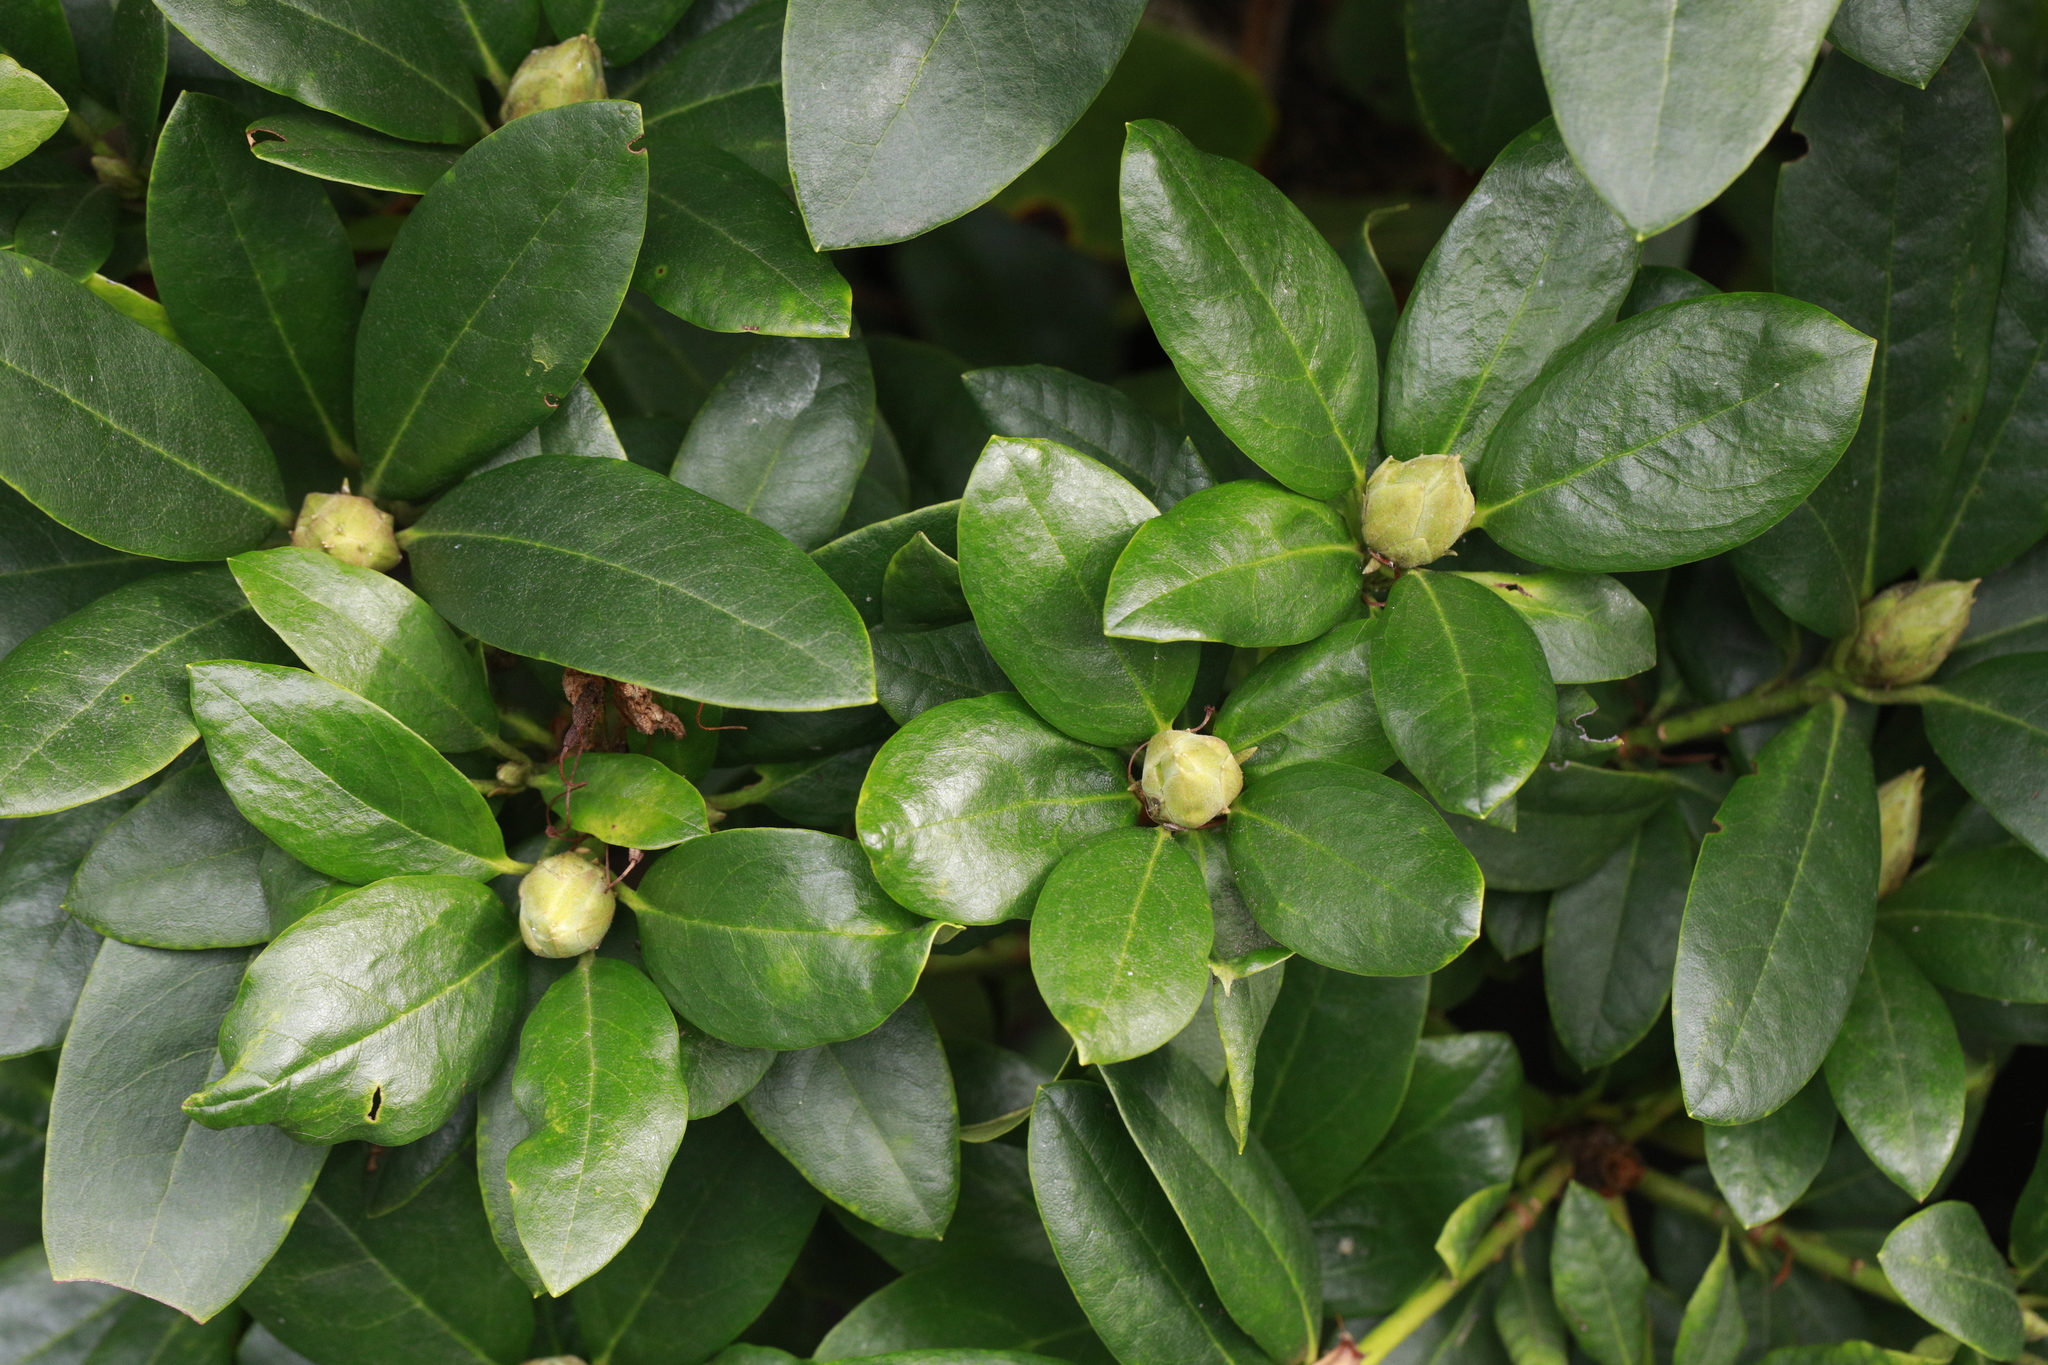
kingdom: Plantae
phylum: Tracheophyta
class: Magnoliopsida
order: Ericales
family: Ericaceae
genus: Rhododendron
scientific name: Rhododendron ponticum
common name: Rhododendron
